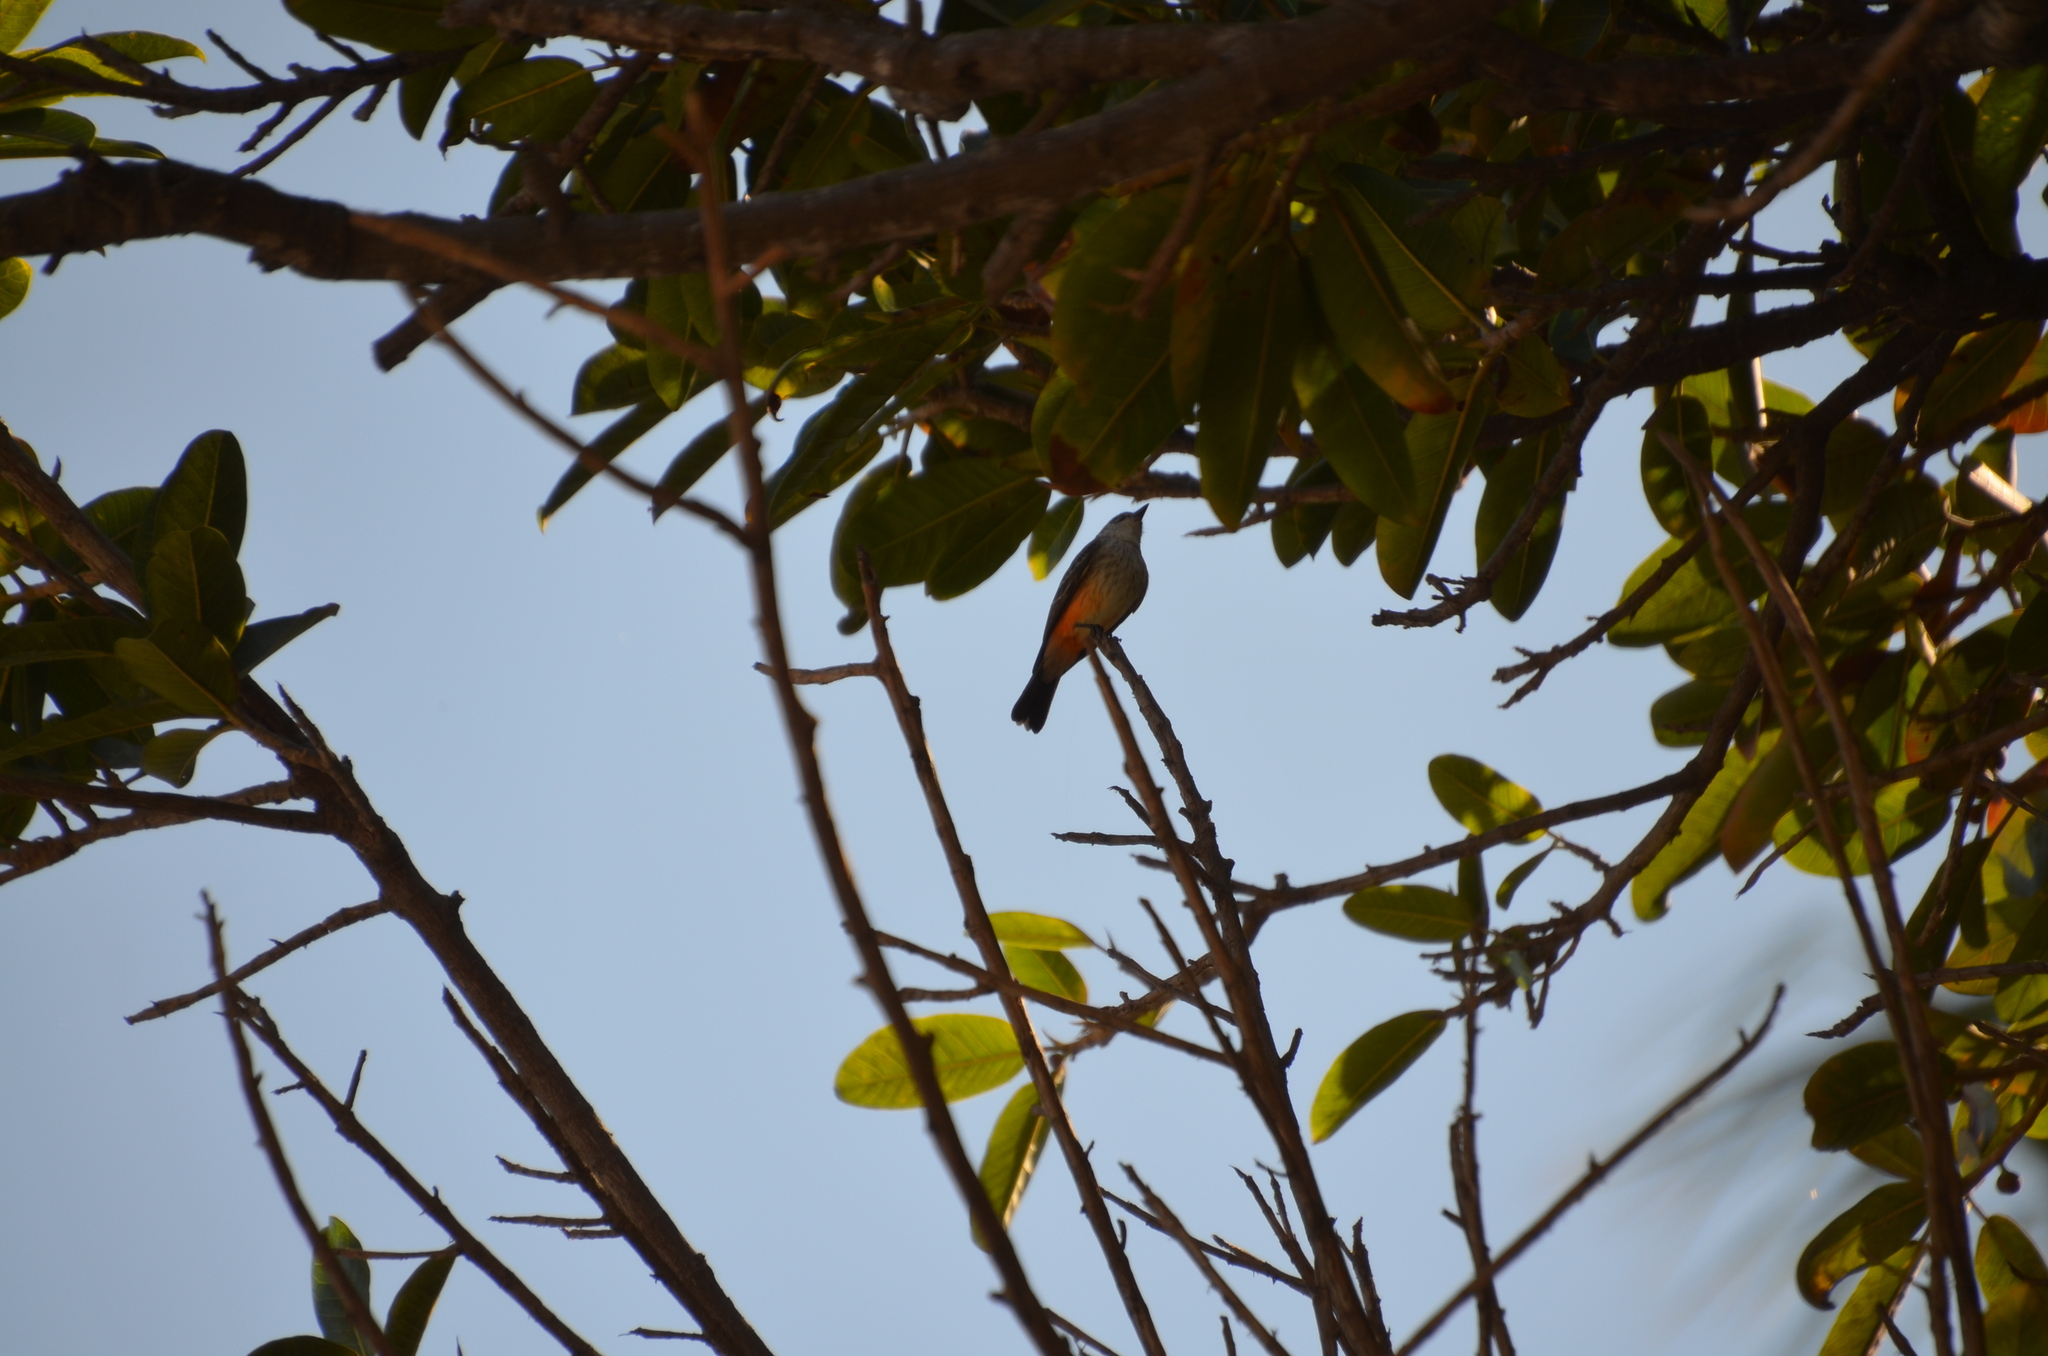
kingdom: Animalia
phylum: Chordata
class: Aves
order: Passeriformes
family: Tyrannidae
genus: Pyrocephalus
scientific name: Pyrocephalus rubinus
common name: Vermilion flycatcher
